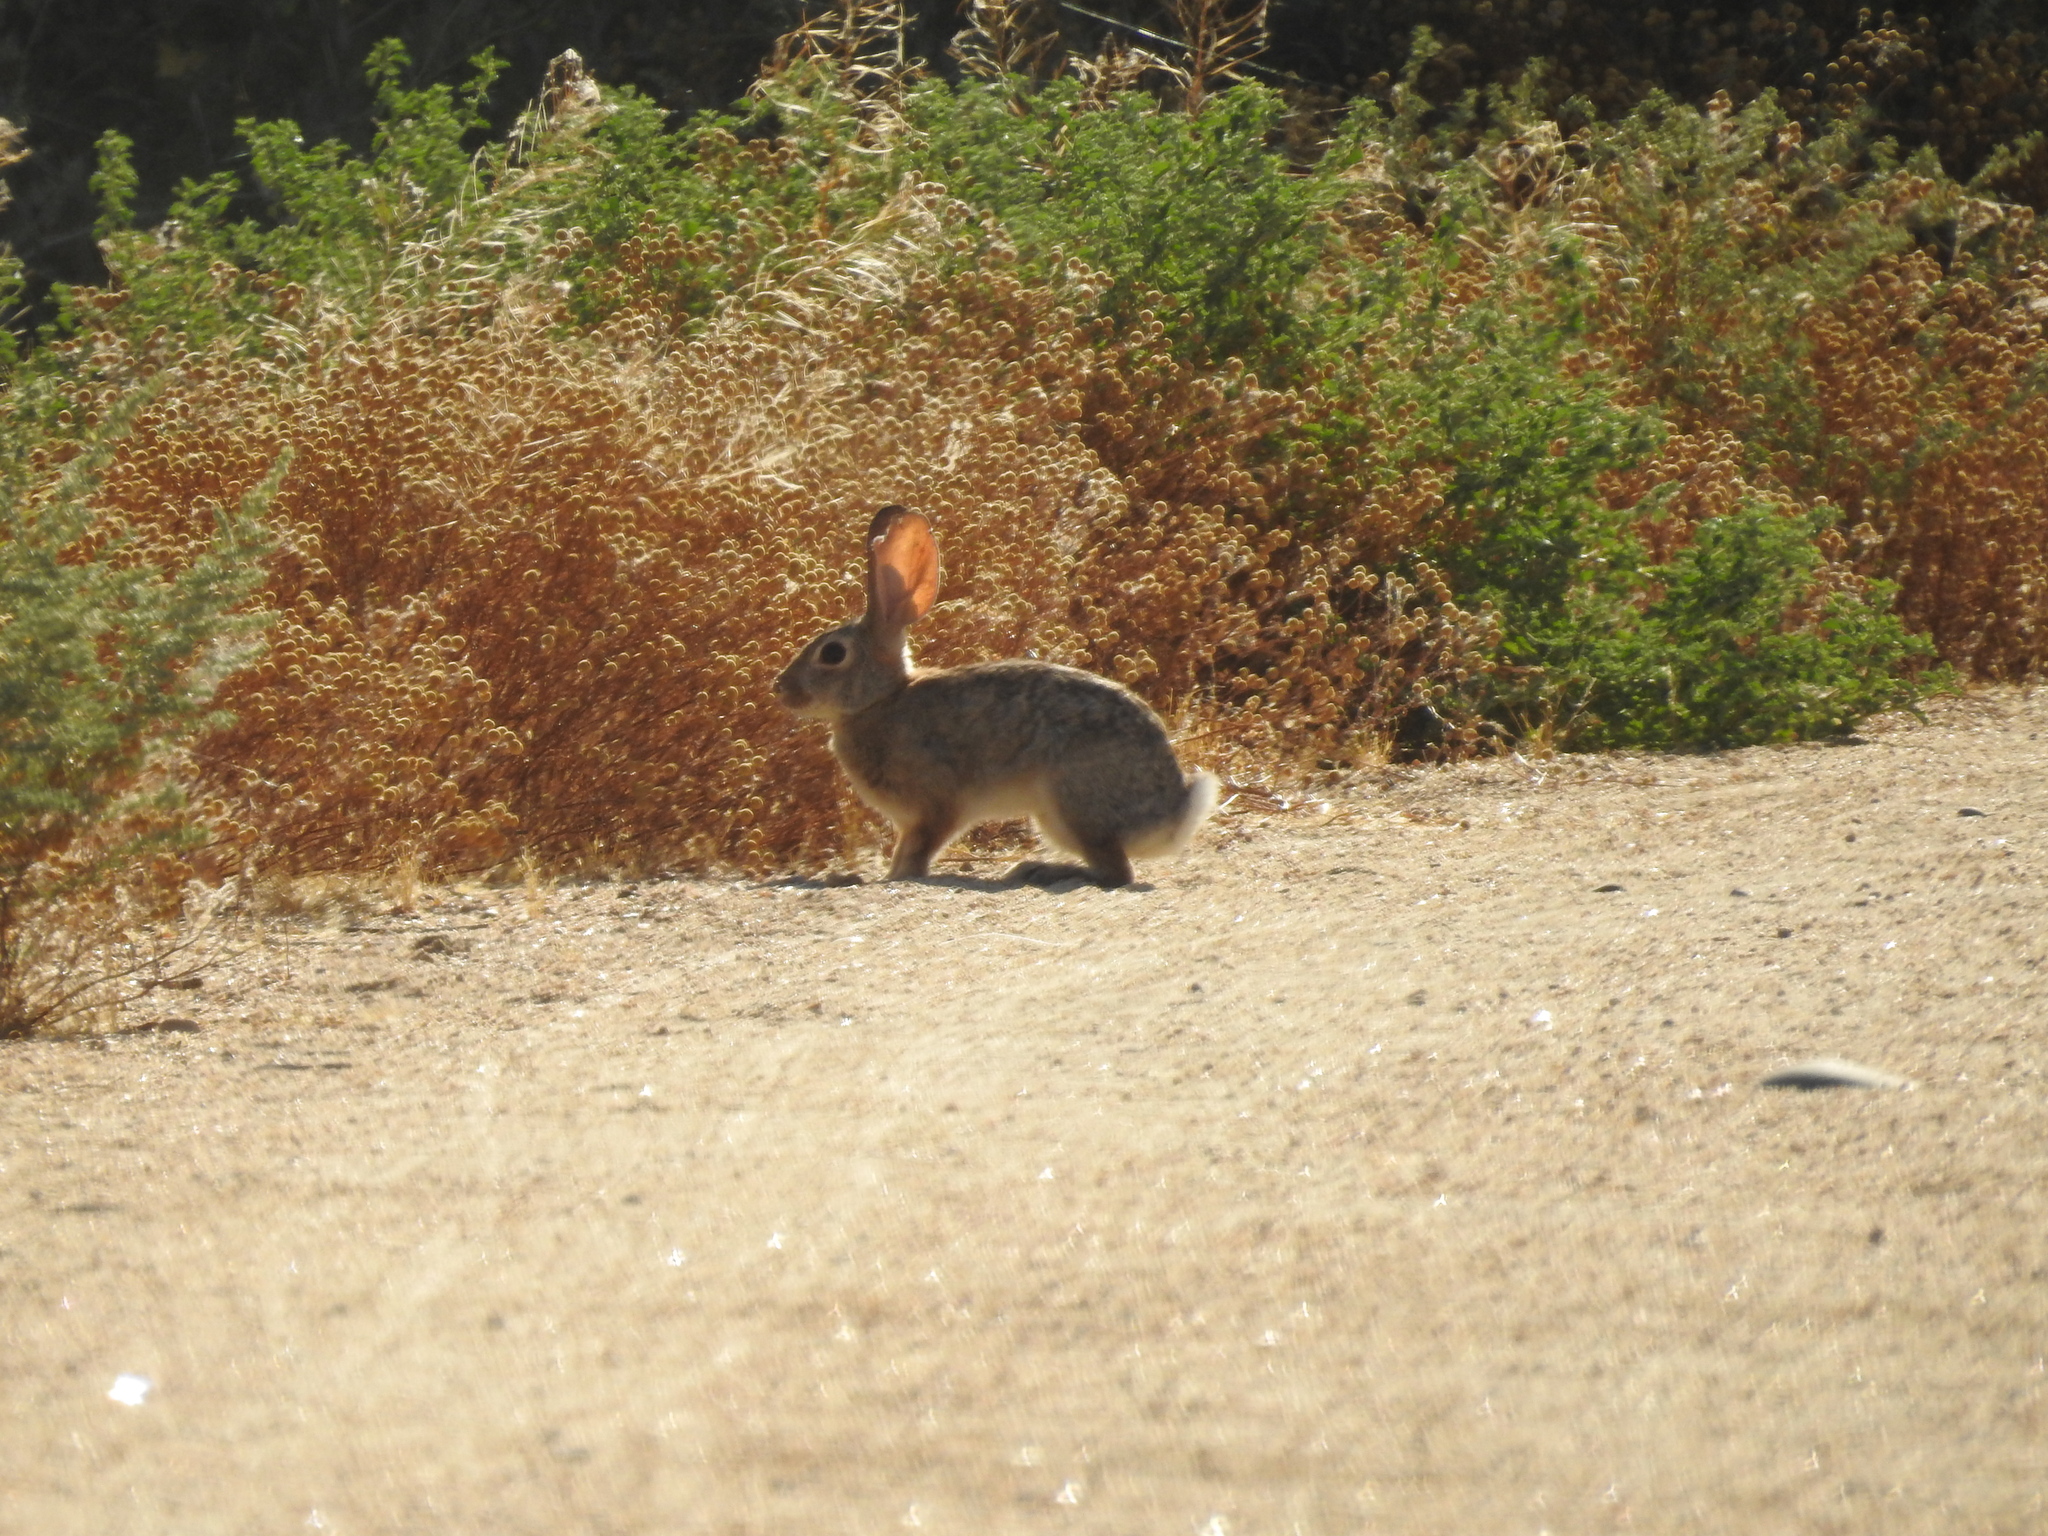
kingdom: Animalia
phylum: Chordata
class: Mammalia
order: Lagomorpha
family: Leporidae
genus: Sylvilagus
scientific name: Sylvilagus audubonii
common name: Desert cottontail
